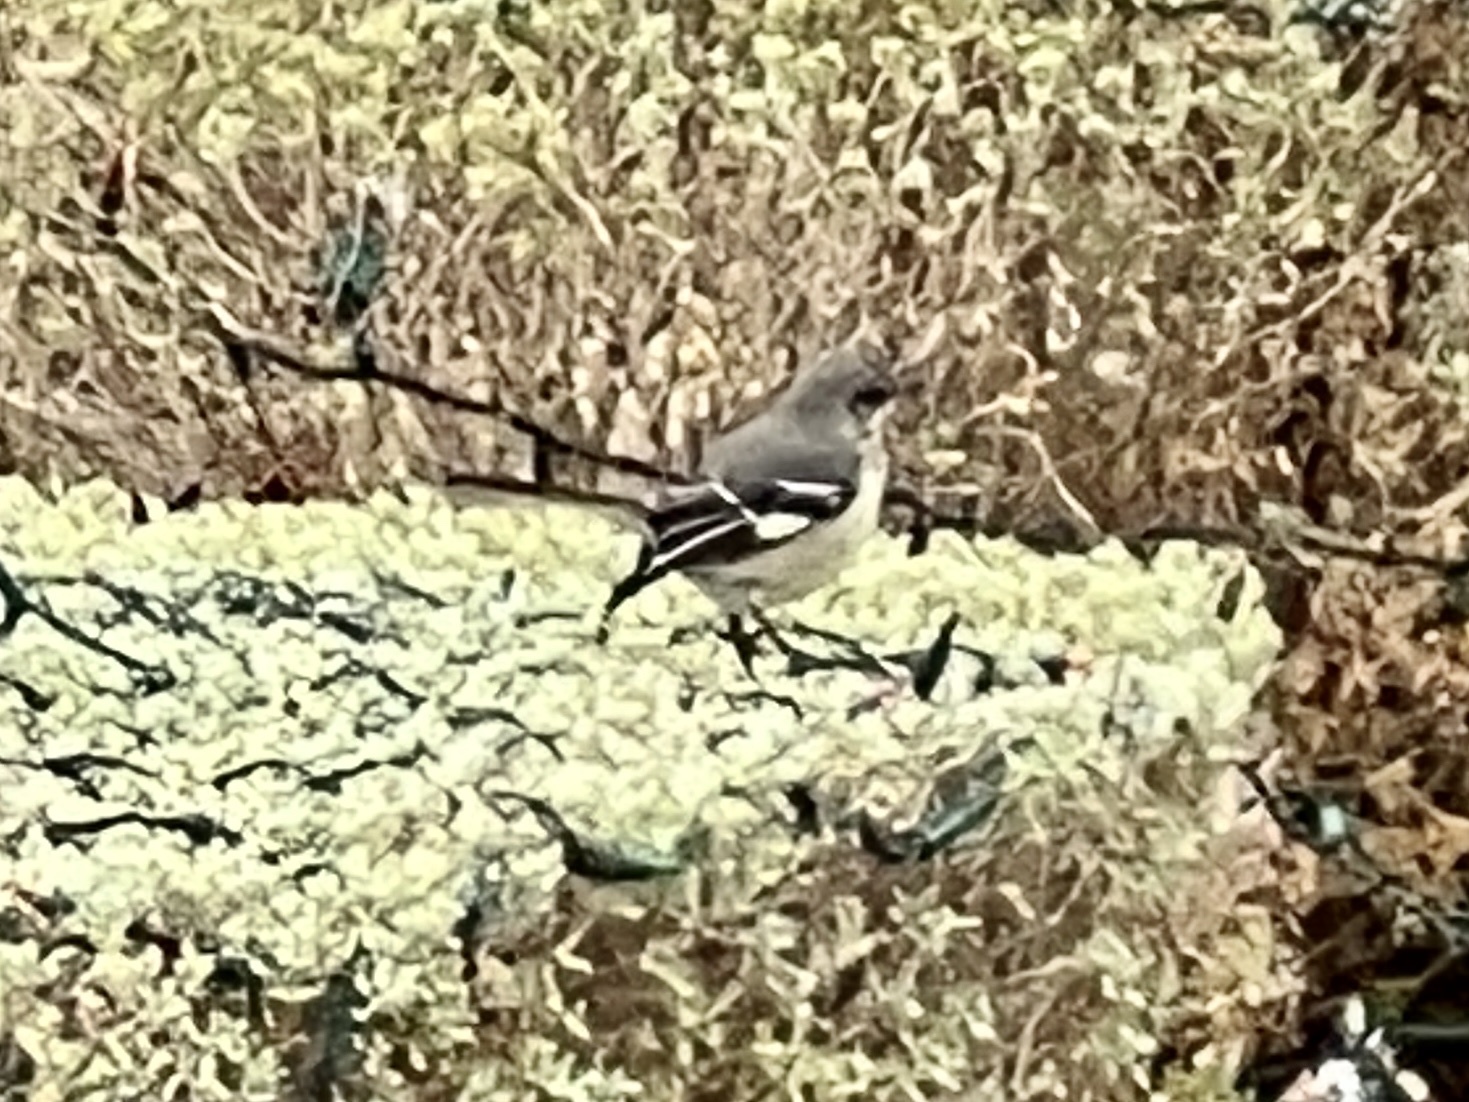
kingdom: Animalia
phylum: Chordata
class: Aves
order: Passeriformes
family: Mimidae
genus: Mimus
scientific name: Mimus polyglottos
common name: Northern mockingbird
